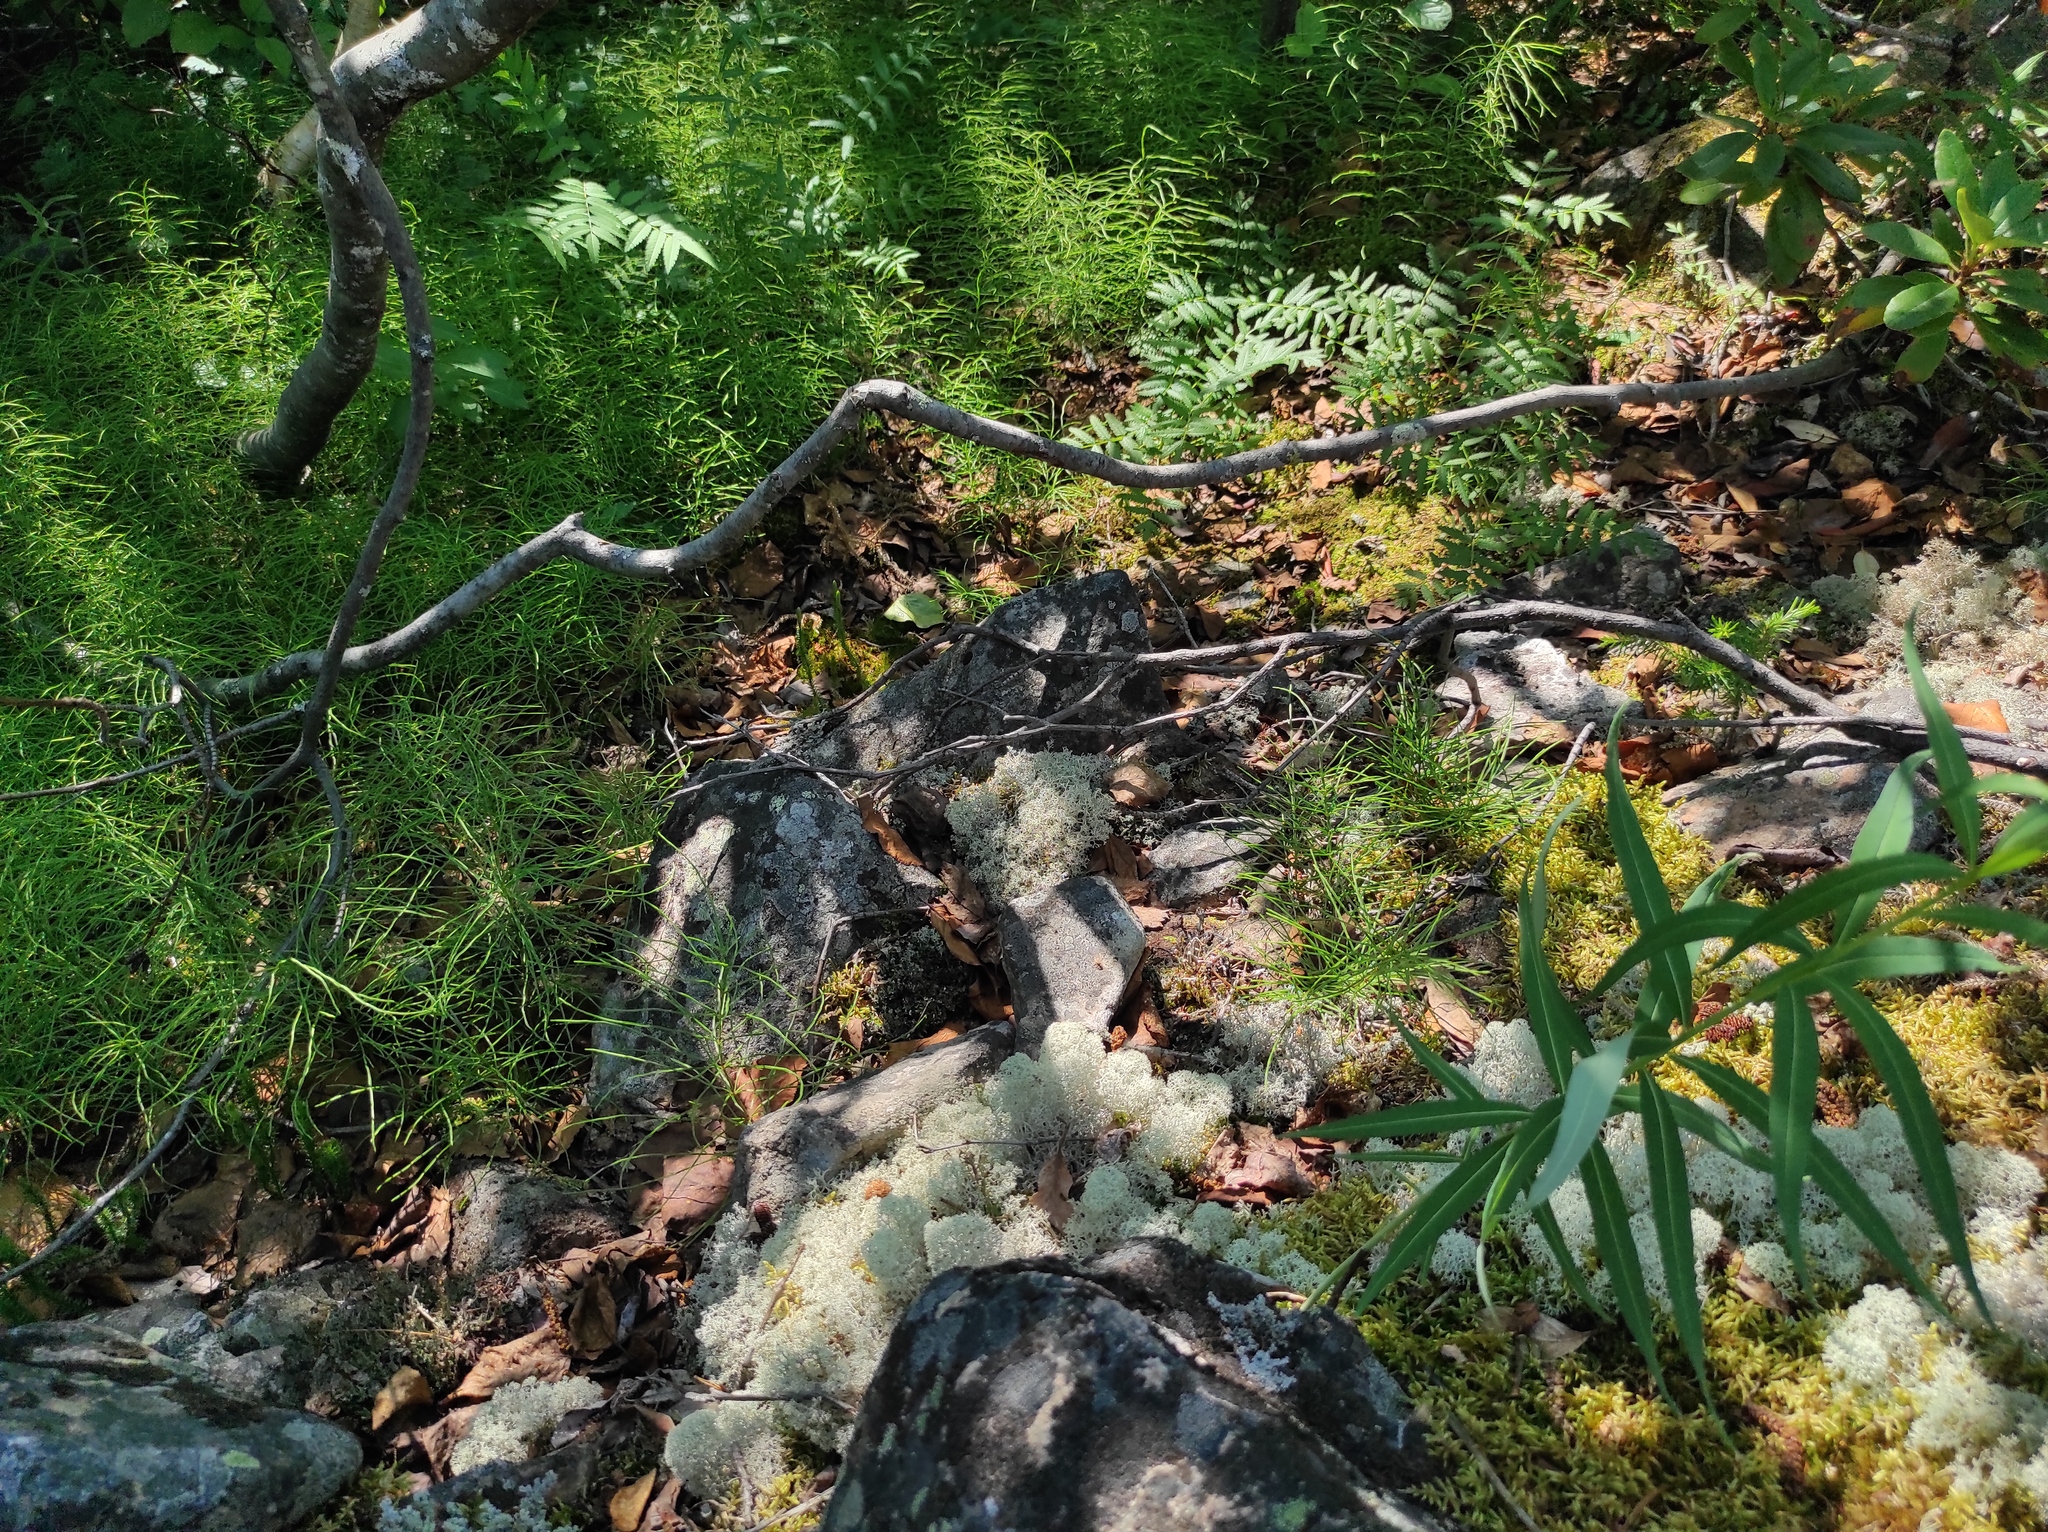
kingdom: Plantae
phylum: Tracheophyta
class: Magnoliopsida
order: Myrtales
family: Onagraceae
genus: Chamaenerion
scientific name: Chamaenerion angustifolium
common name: Fireweed
